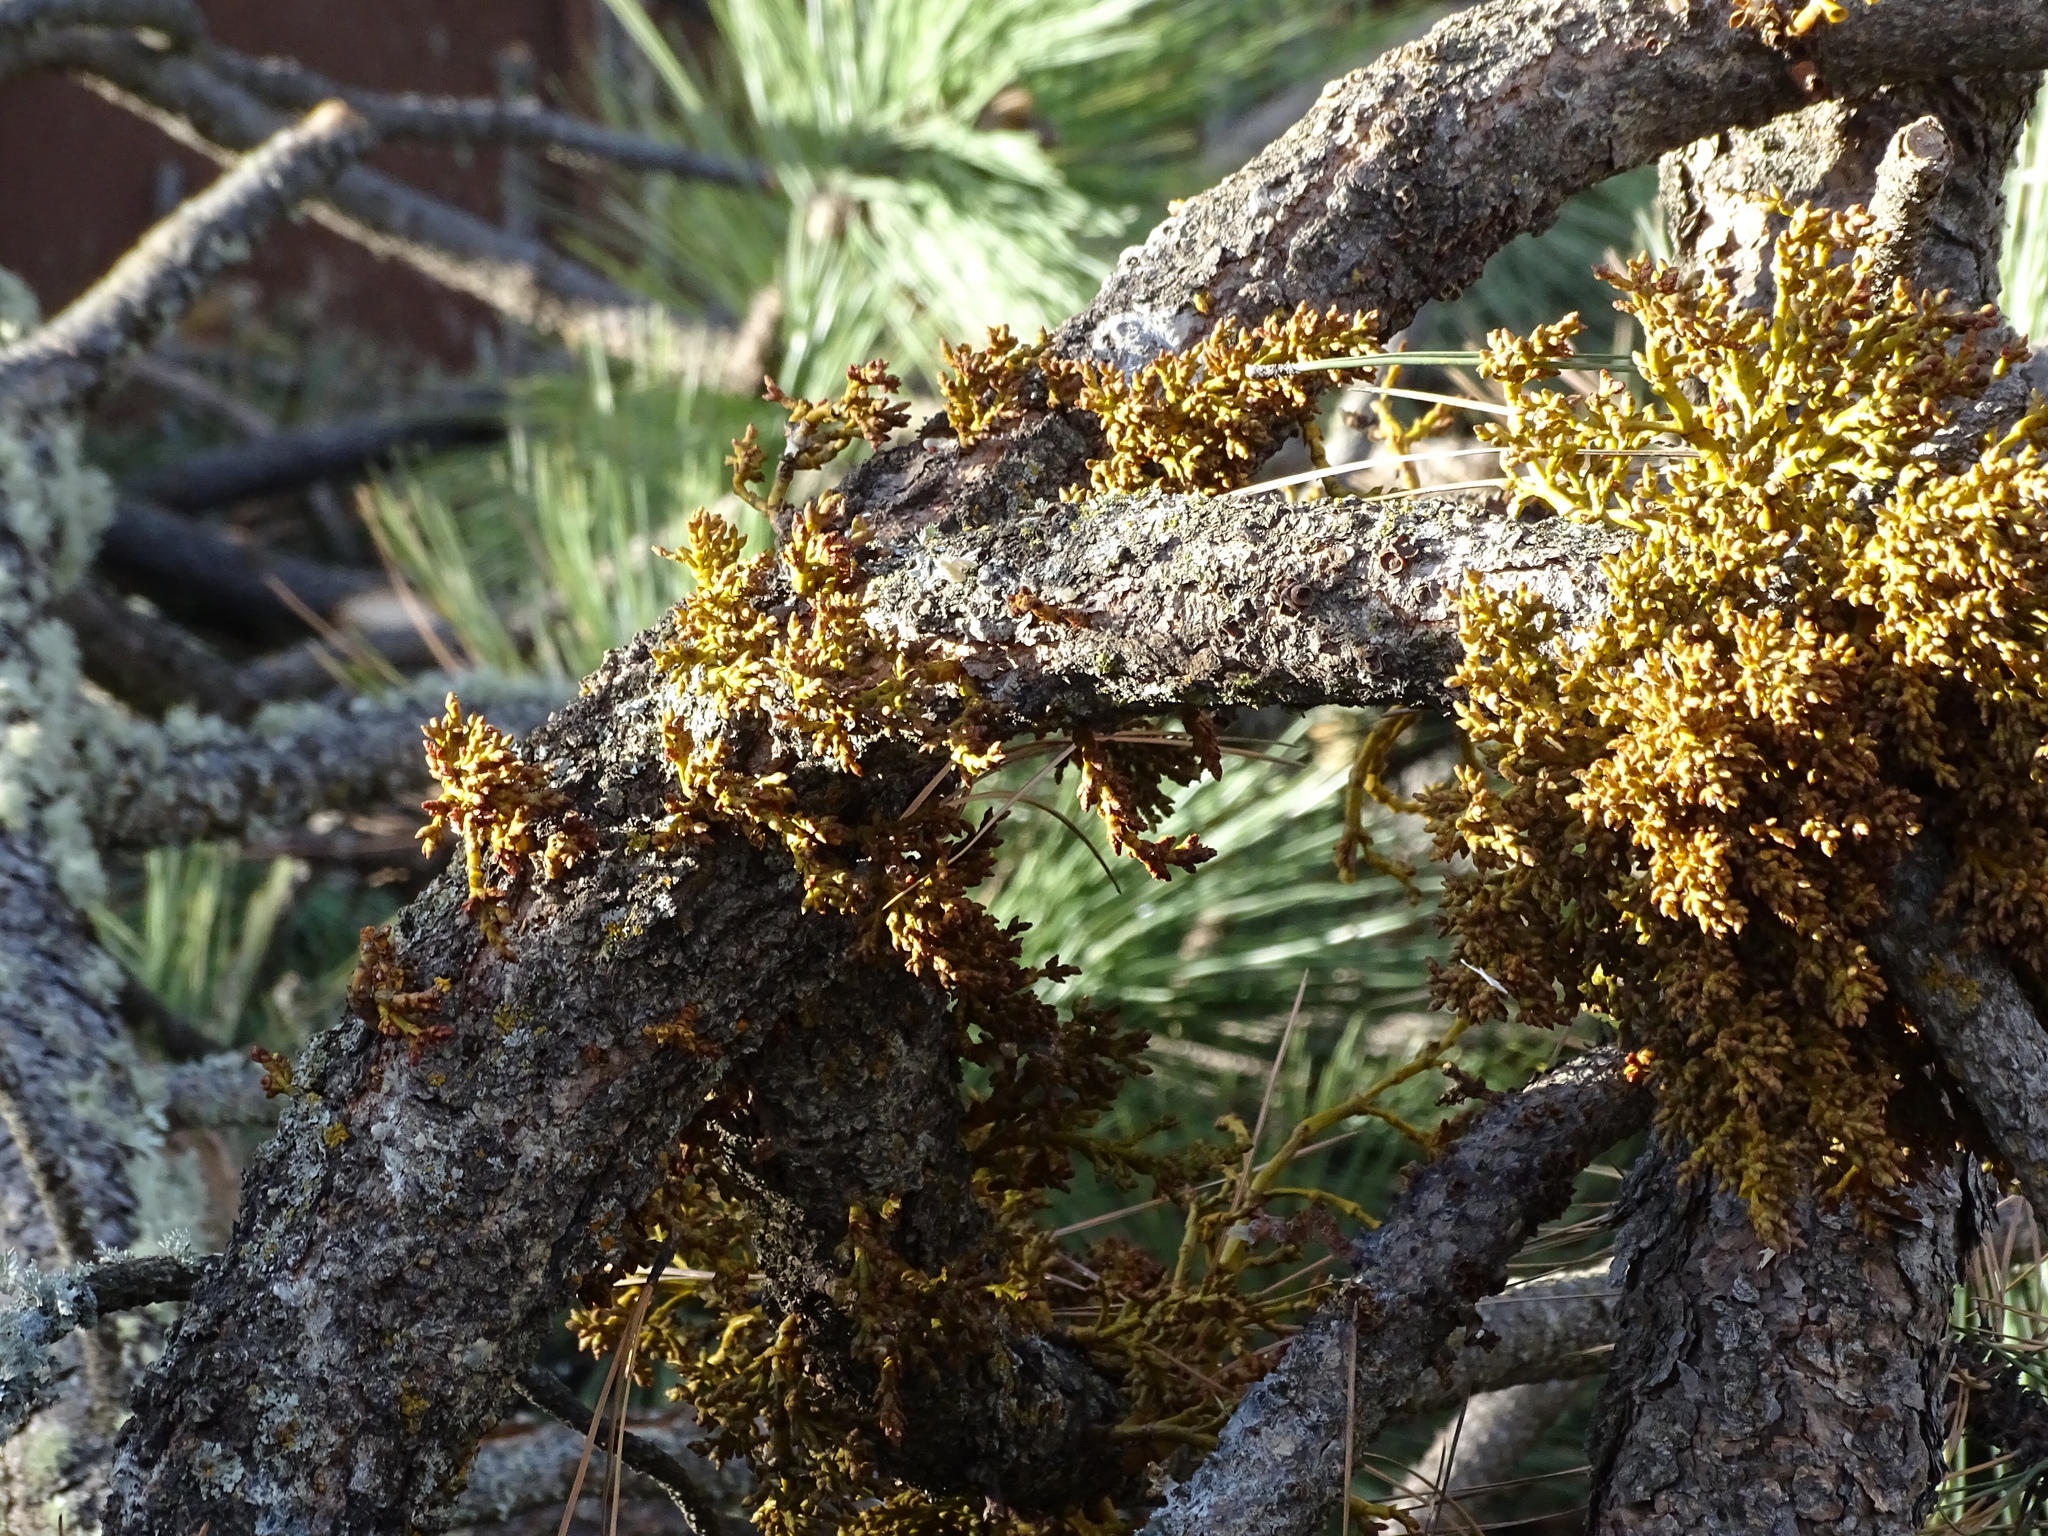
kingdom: Plantae
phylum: Tracheophyta
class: Magnoliopsida
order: Santalales
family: Viscaceae
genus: Arceuthobium
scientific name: Arceuthobium vaginatum
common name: Southwestern dwarf-mistletoe
